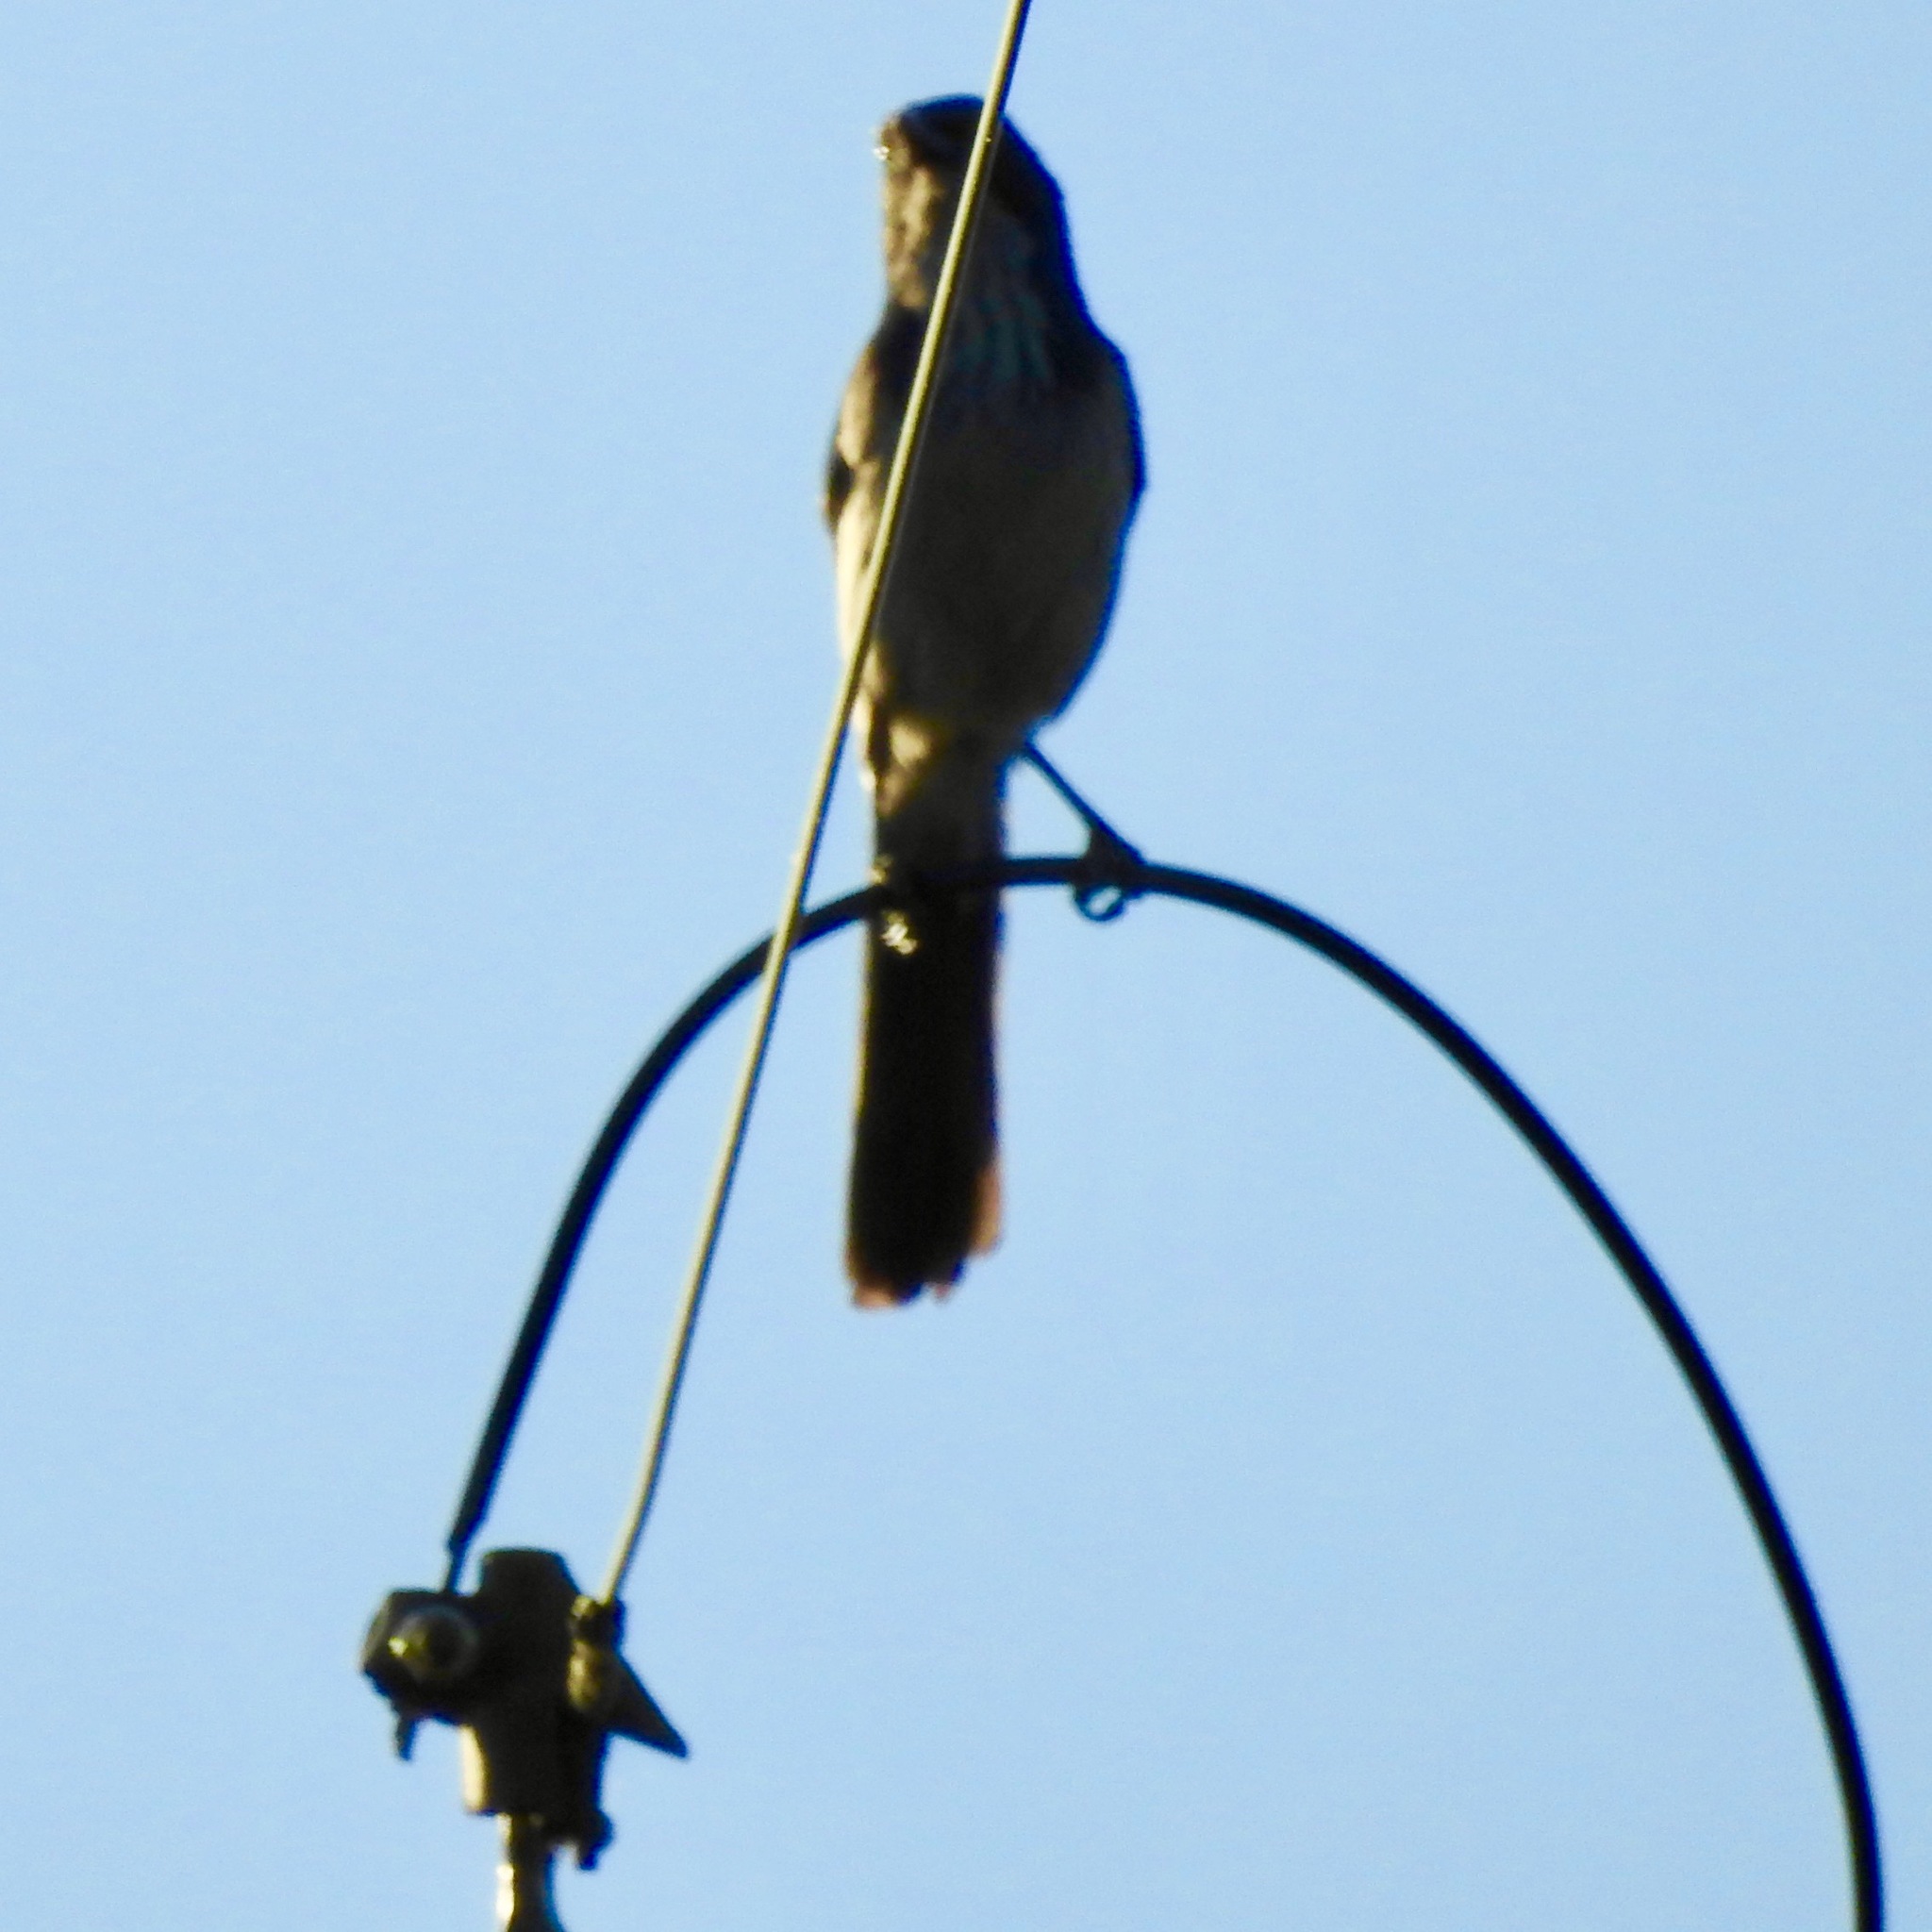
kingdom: Animalia
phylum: Chordata
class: Aves
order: Passeriformes
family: Corvidae
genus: Aphelocoma
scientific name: Aphelocoma californica
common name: California scrub-jay
